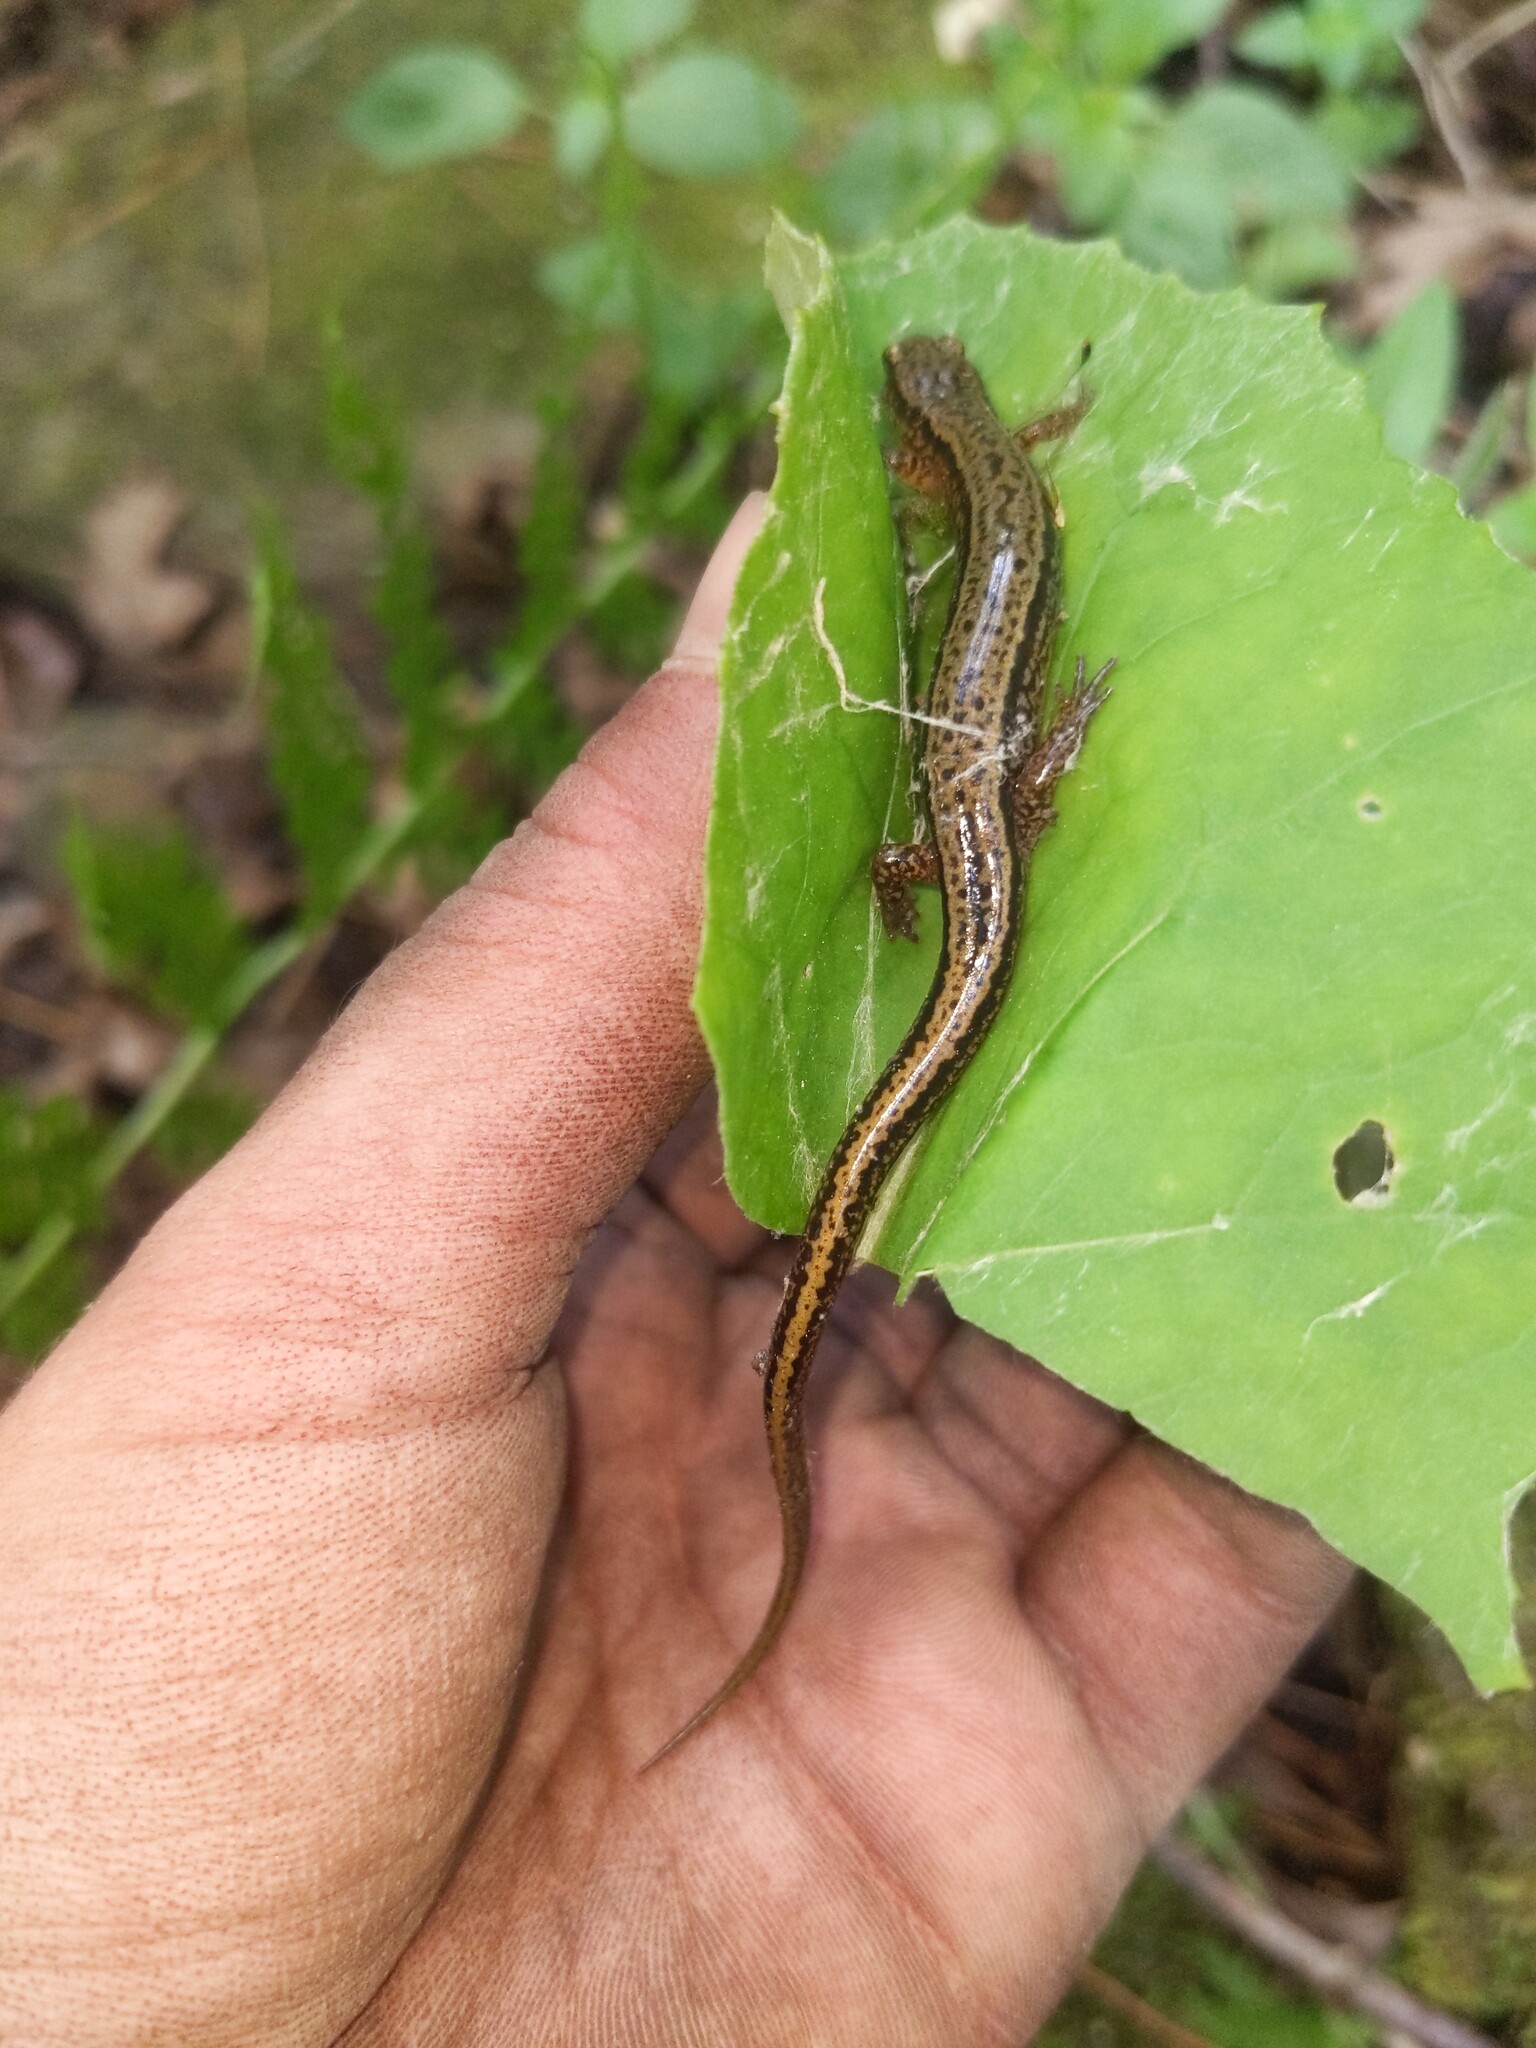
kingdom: Animalia
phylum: Chordata
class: Amphibia
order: Caudata
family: Plethodontidae
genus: Eurycea
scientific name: Eurycea bislineata
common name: Northern two-lined salamander
